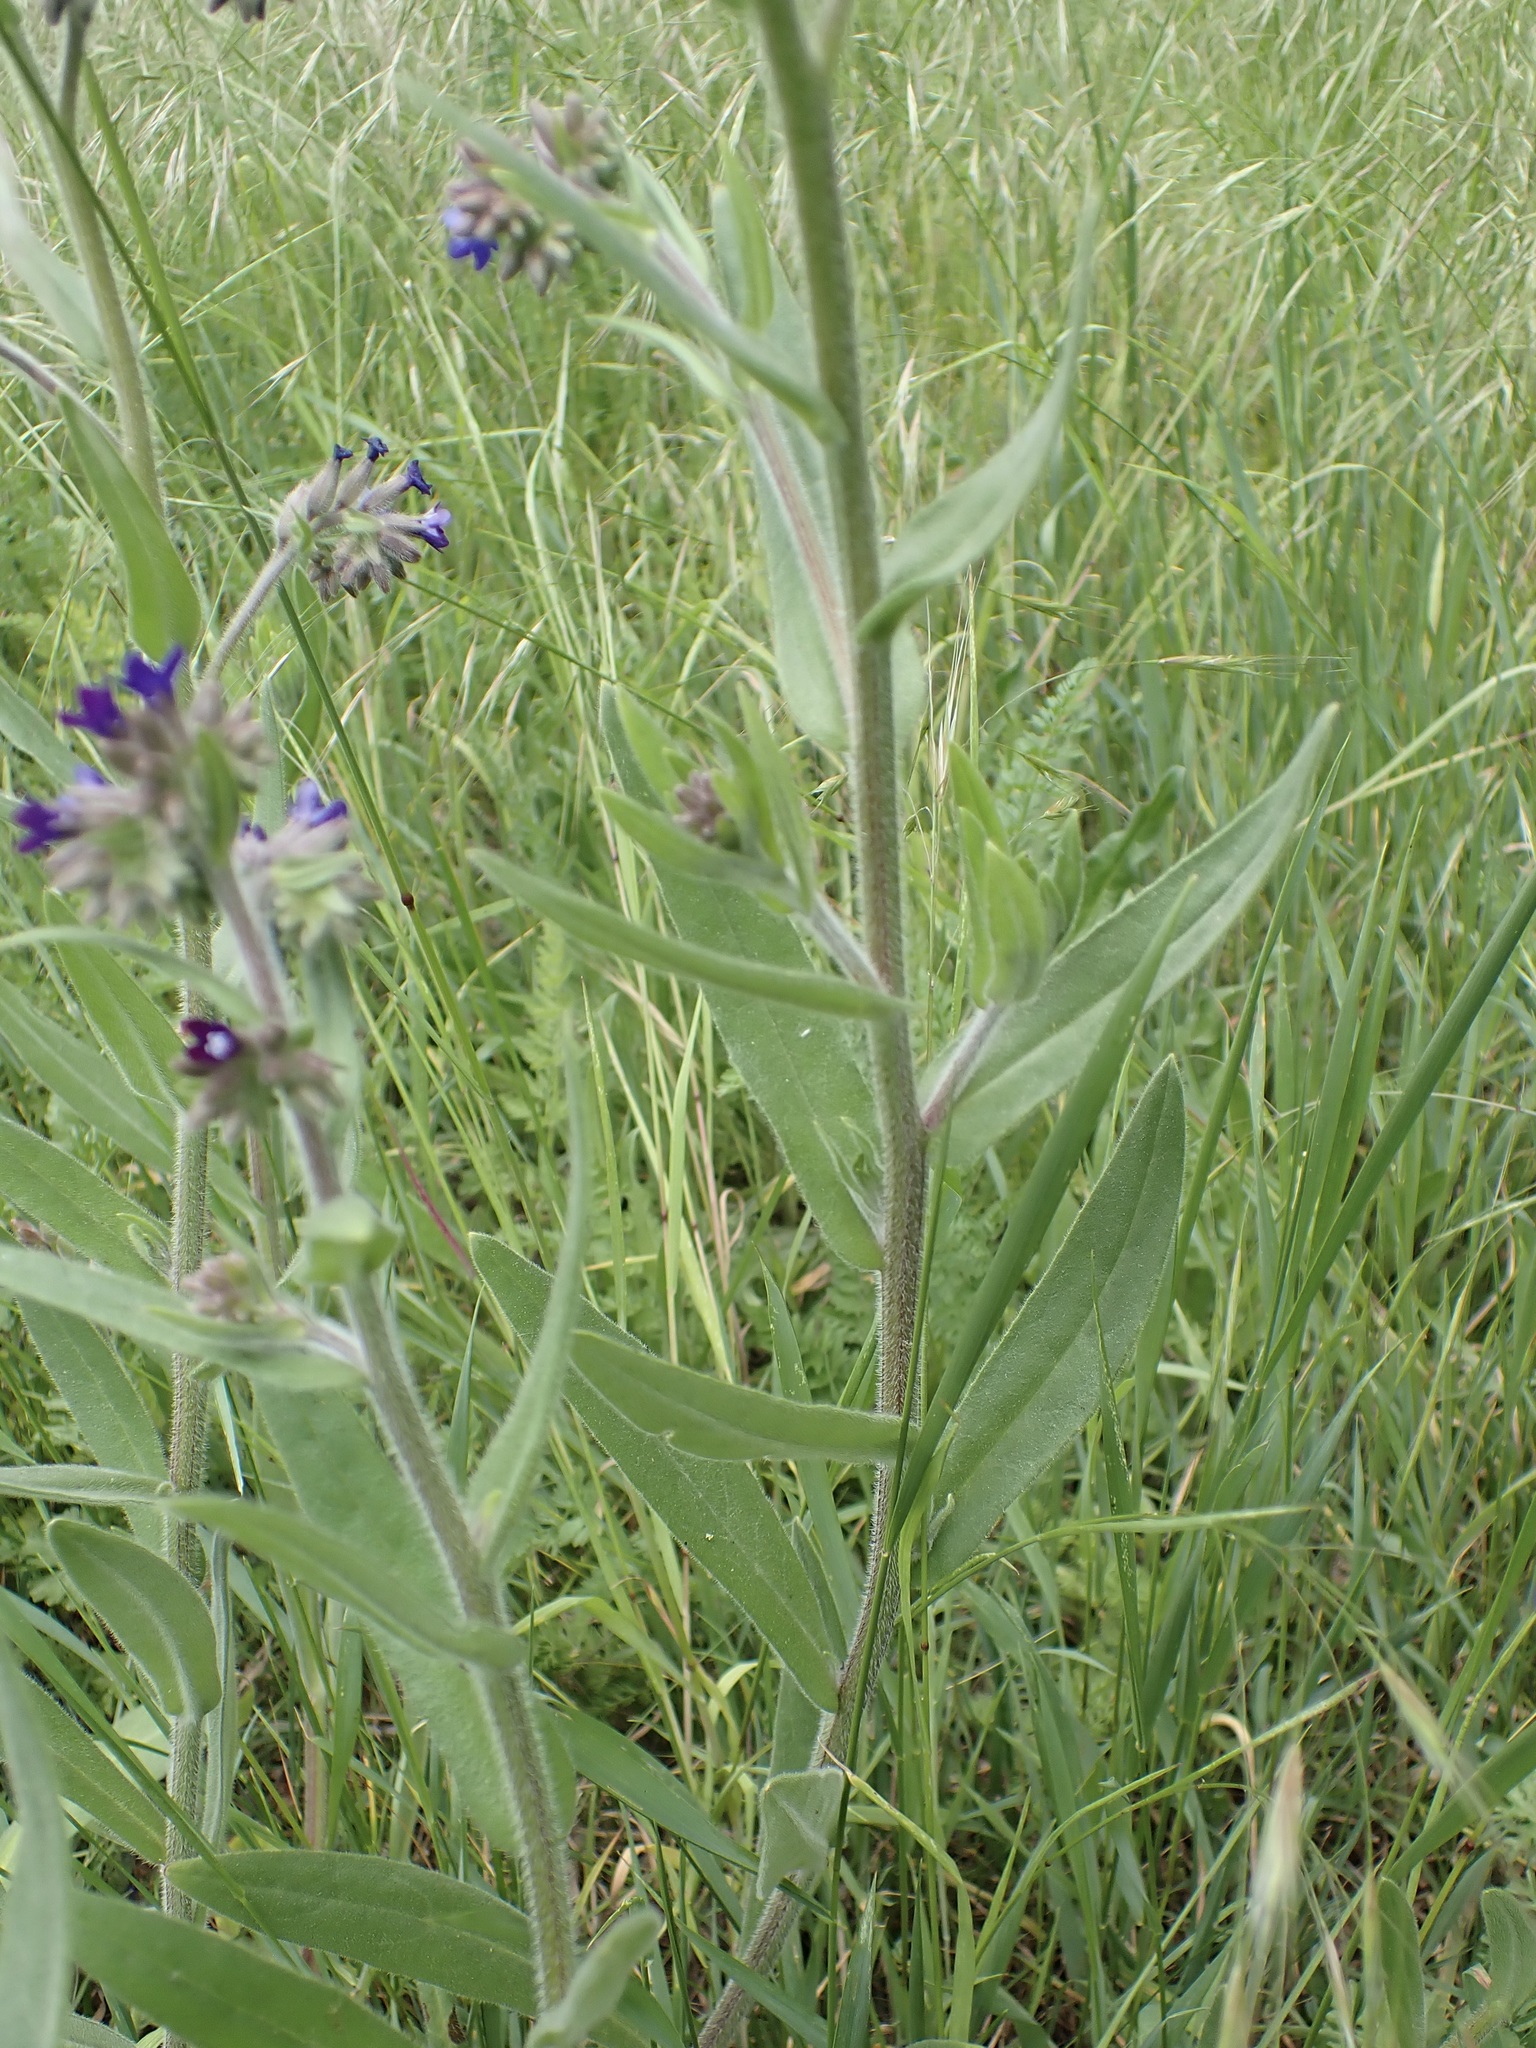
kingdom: Plantae
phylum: Tracheophyta
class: Magnoliopsida
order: Boraginales
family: Boraginaceae
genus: Anchusa
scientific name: Anchusa officinalis
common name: Alkanet
